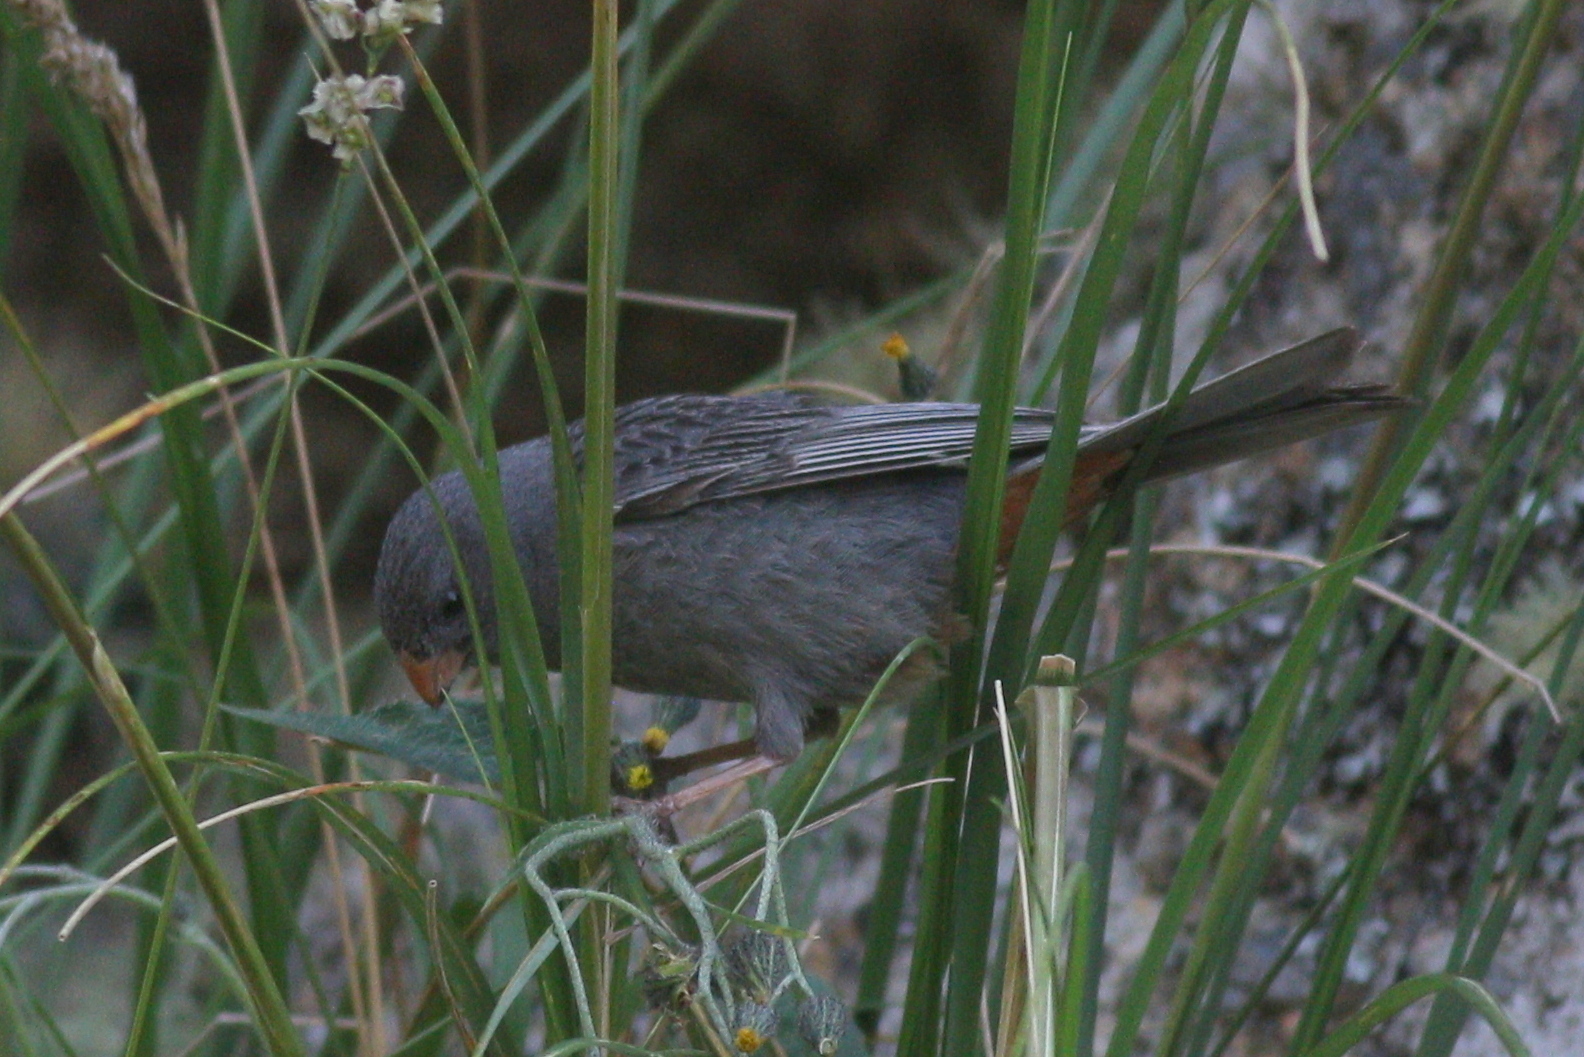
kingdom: Animalia
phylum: Chordata
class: Aves
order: Passeriformes
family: Thraupidae
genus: Catamenia
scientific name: Catamenia inornata
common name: Plain-colored seedeater
